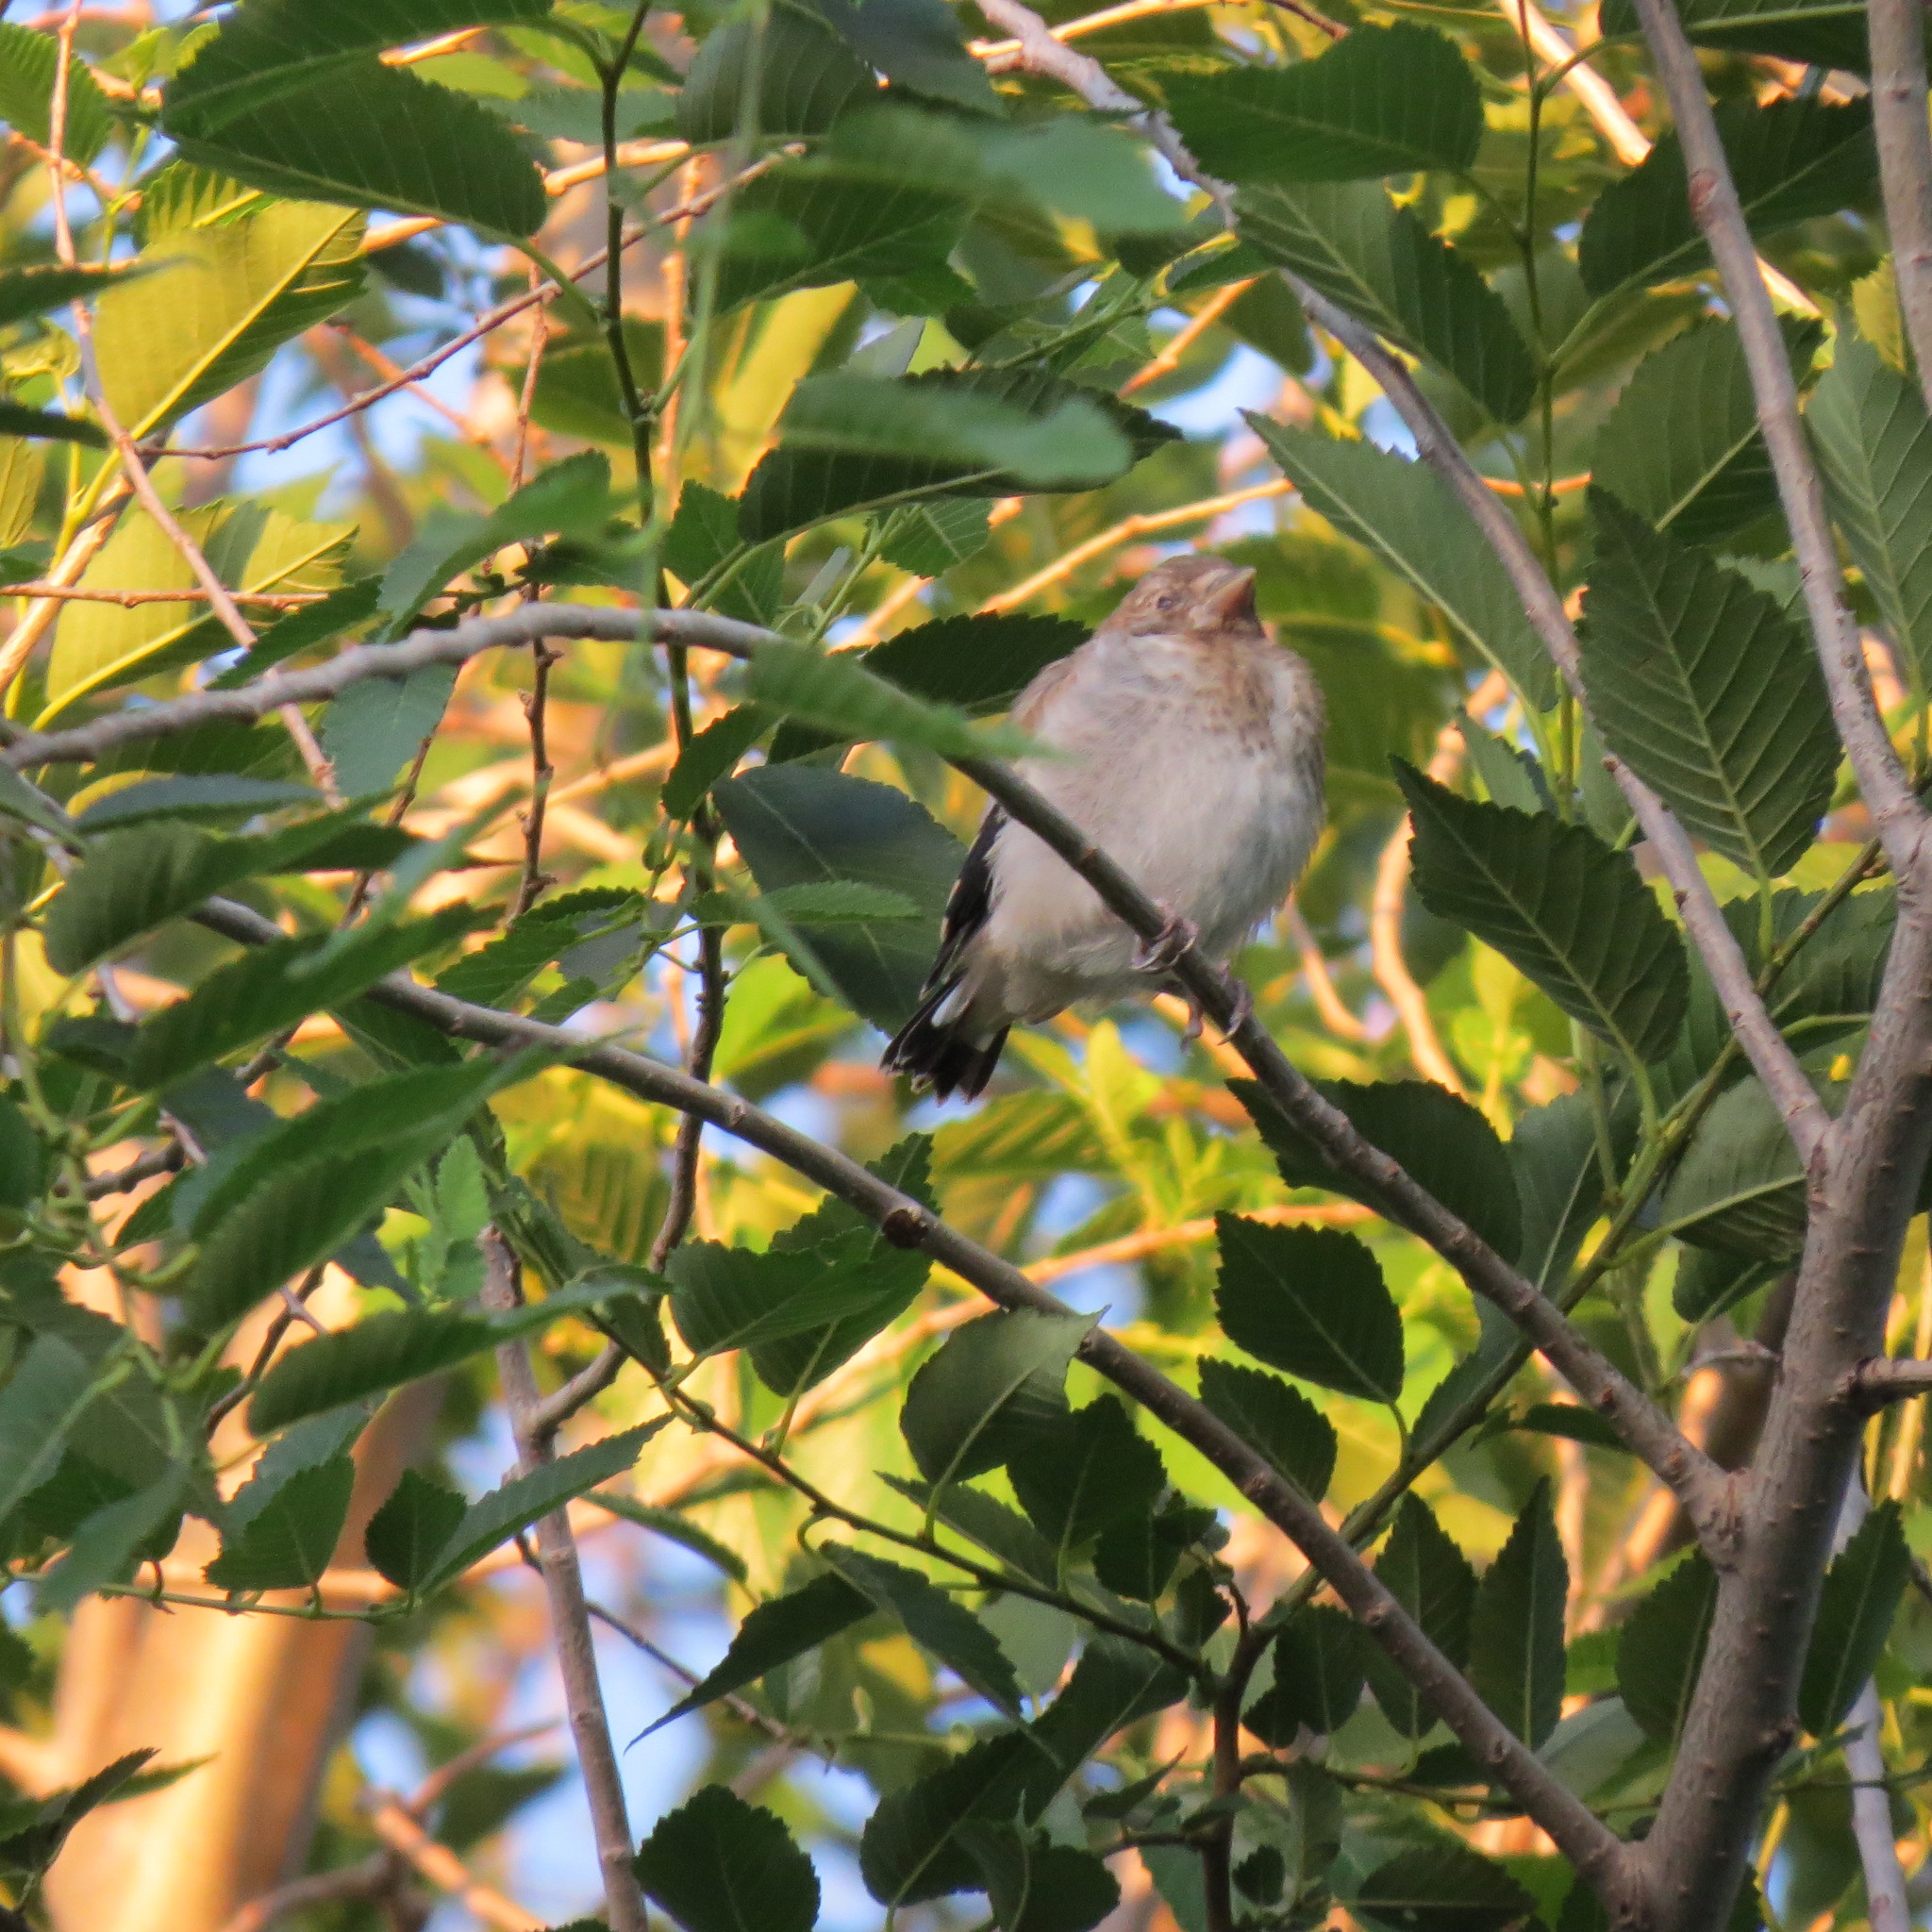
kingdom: Animalia
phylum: Chordata
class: Aves
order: Passeriformes
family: Fringillidae
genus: Carduelis
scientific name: Carduelis carduelis
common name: European goldfinch
